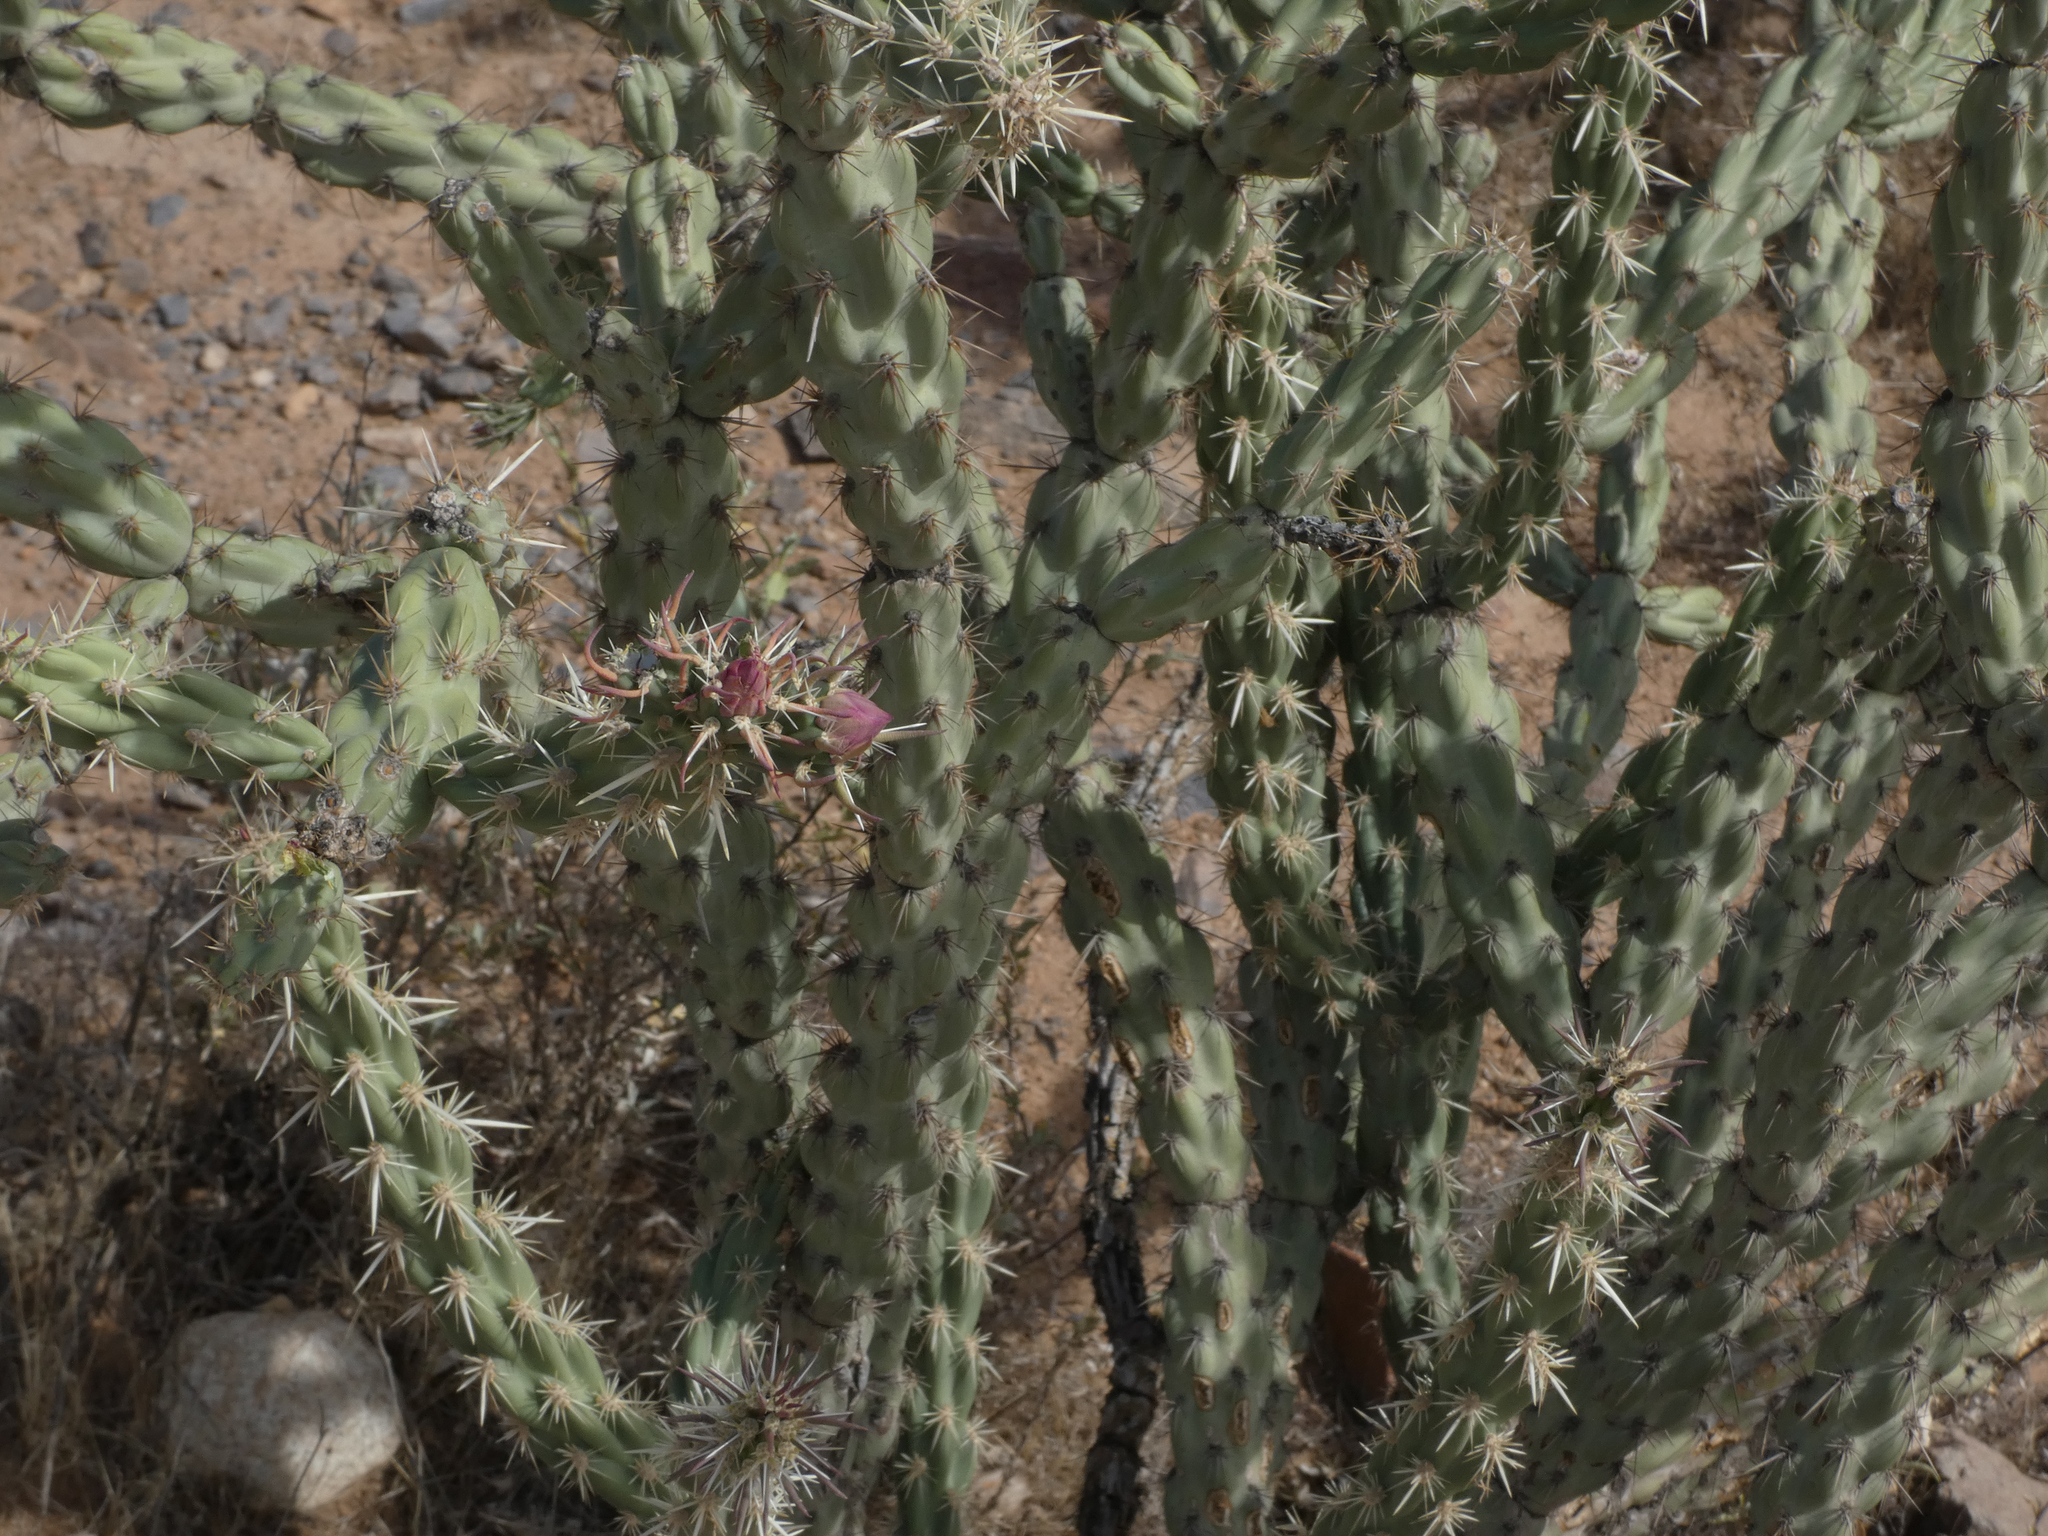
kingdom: Plantae
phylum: Tracheophyta
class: Magnoliopsida
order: Caryophyllales
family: Cactaceae
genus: Cylindropuntia
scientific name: Cylindropuntia acanthocarpa
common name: Buckhorn cholla
